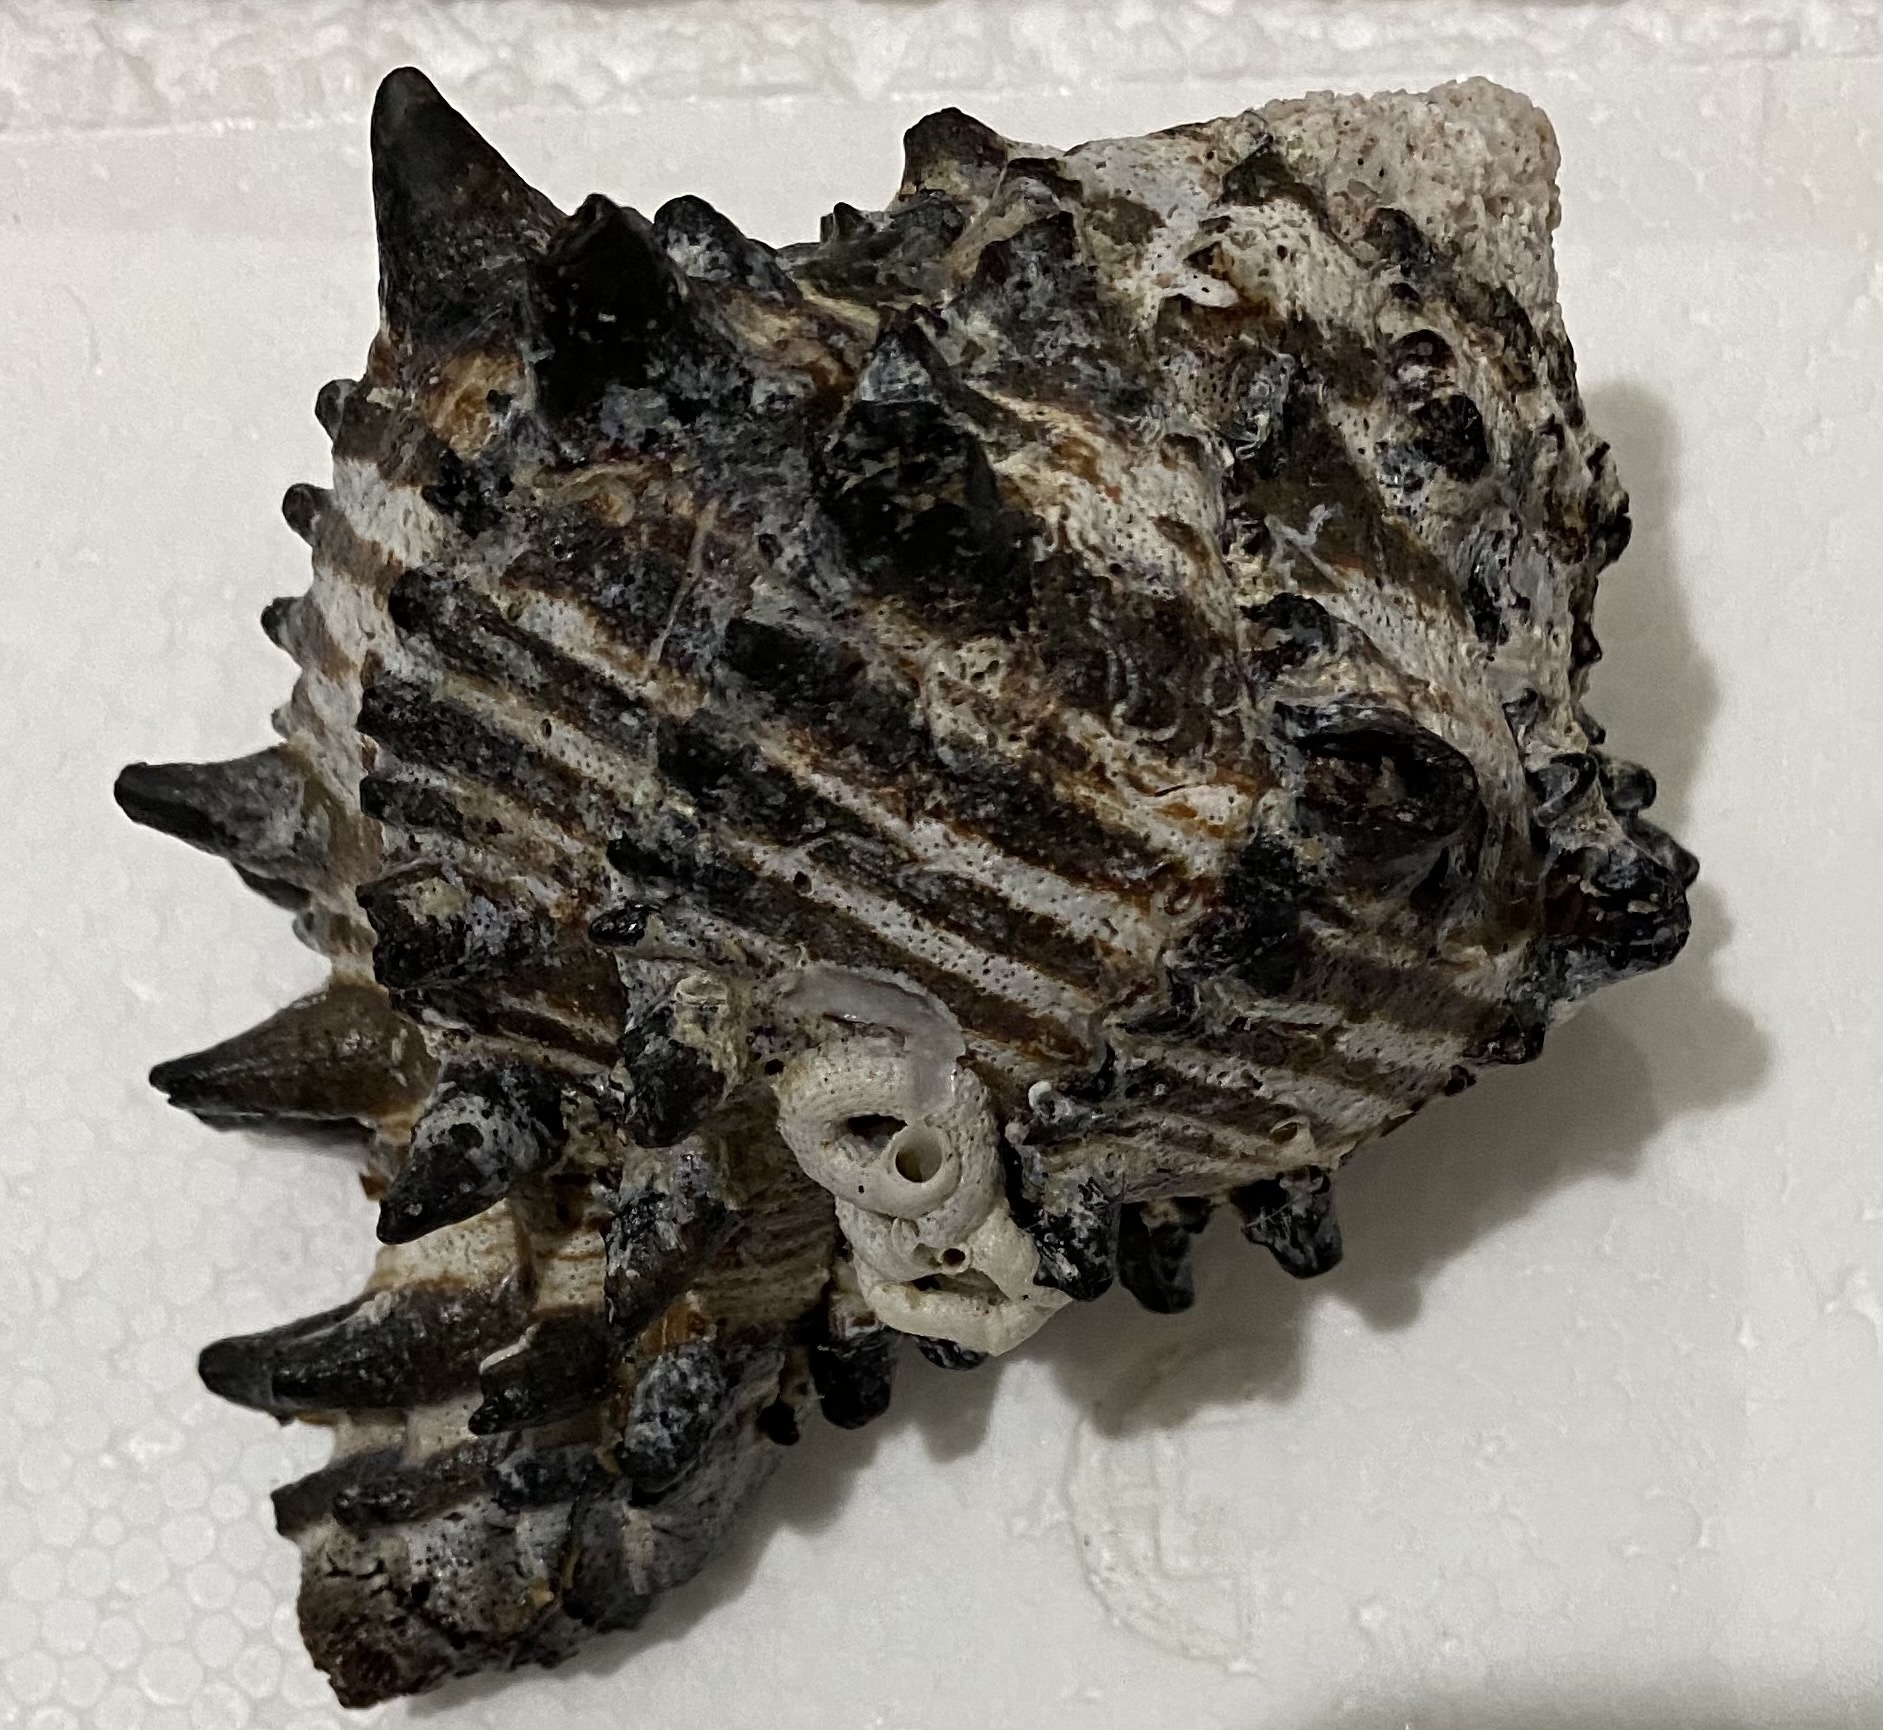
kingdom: Animalia
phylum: Mollusca
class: Gastropoda
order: Neogastropoda
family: Muricidae
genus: Muricanthus
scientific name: Muricanthus nigritus
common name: Black murex
